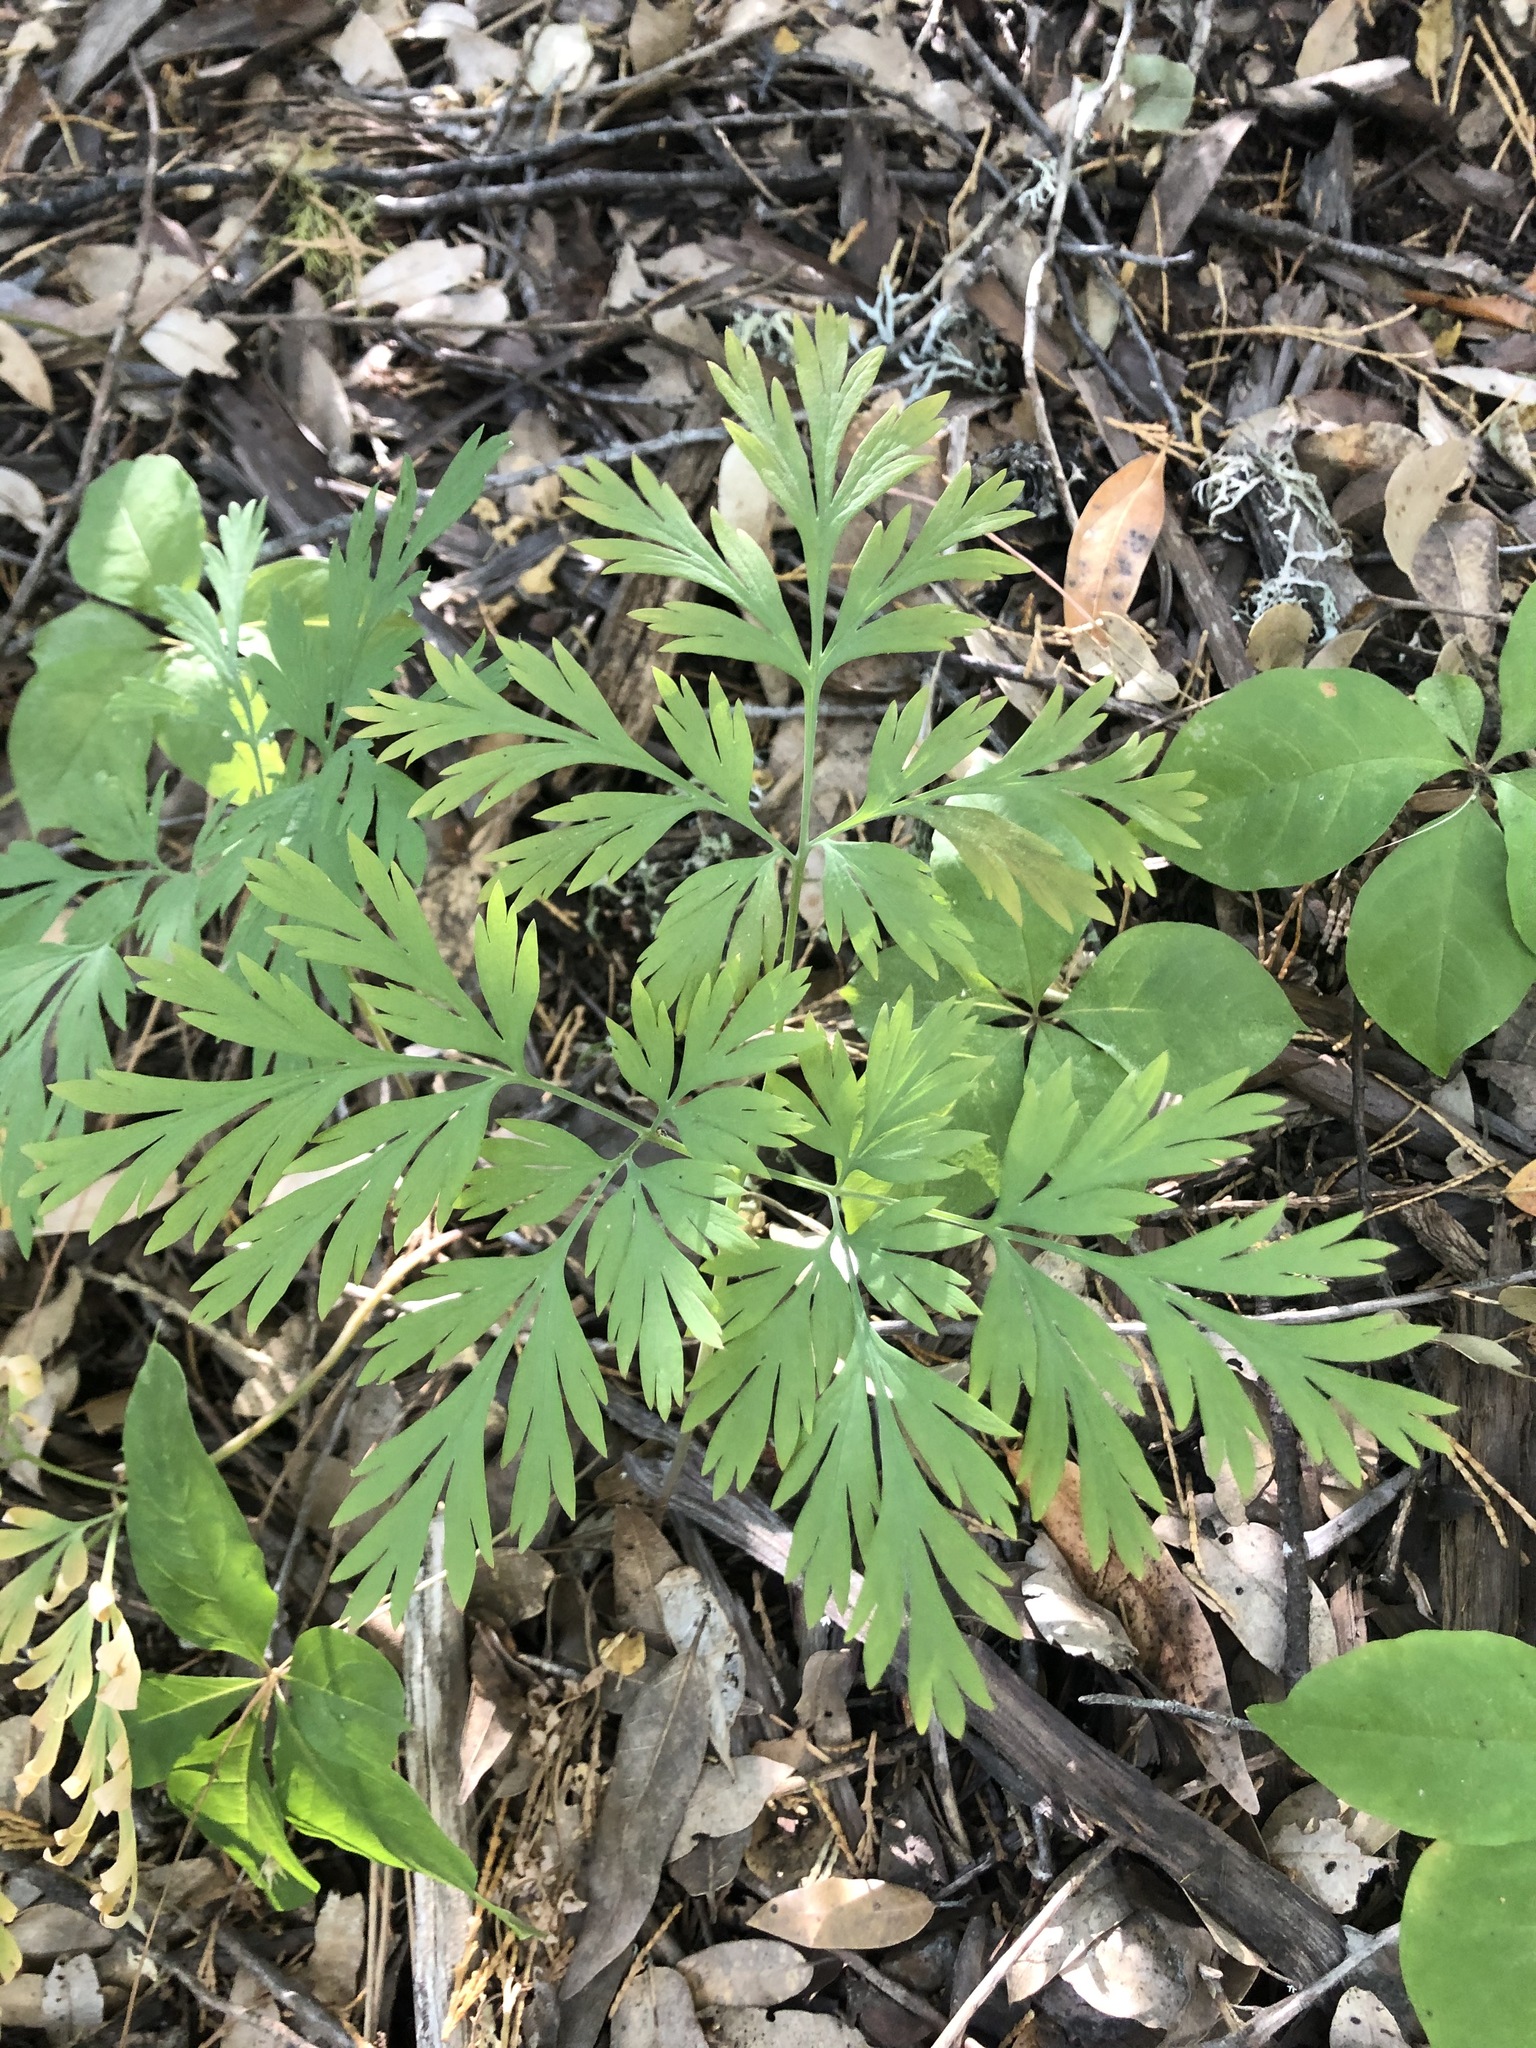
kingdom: Plantae
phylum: Tracheophyta
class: Magnoliopsida
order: Ranunculales
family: Papaveraceae
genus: Dicentra
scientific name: Dicentra formosa
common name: Bleeding-heart
